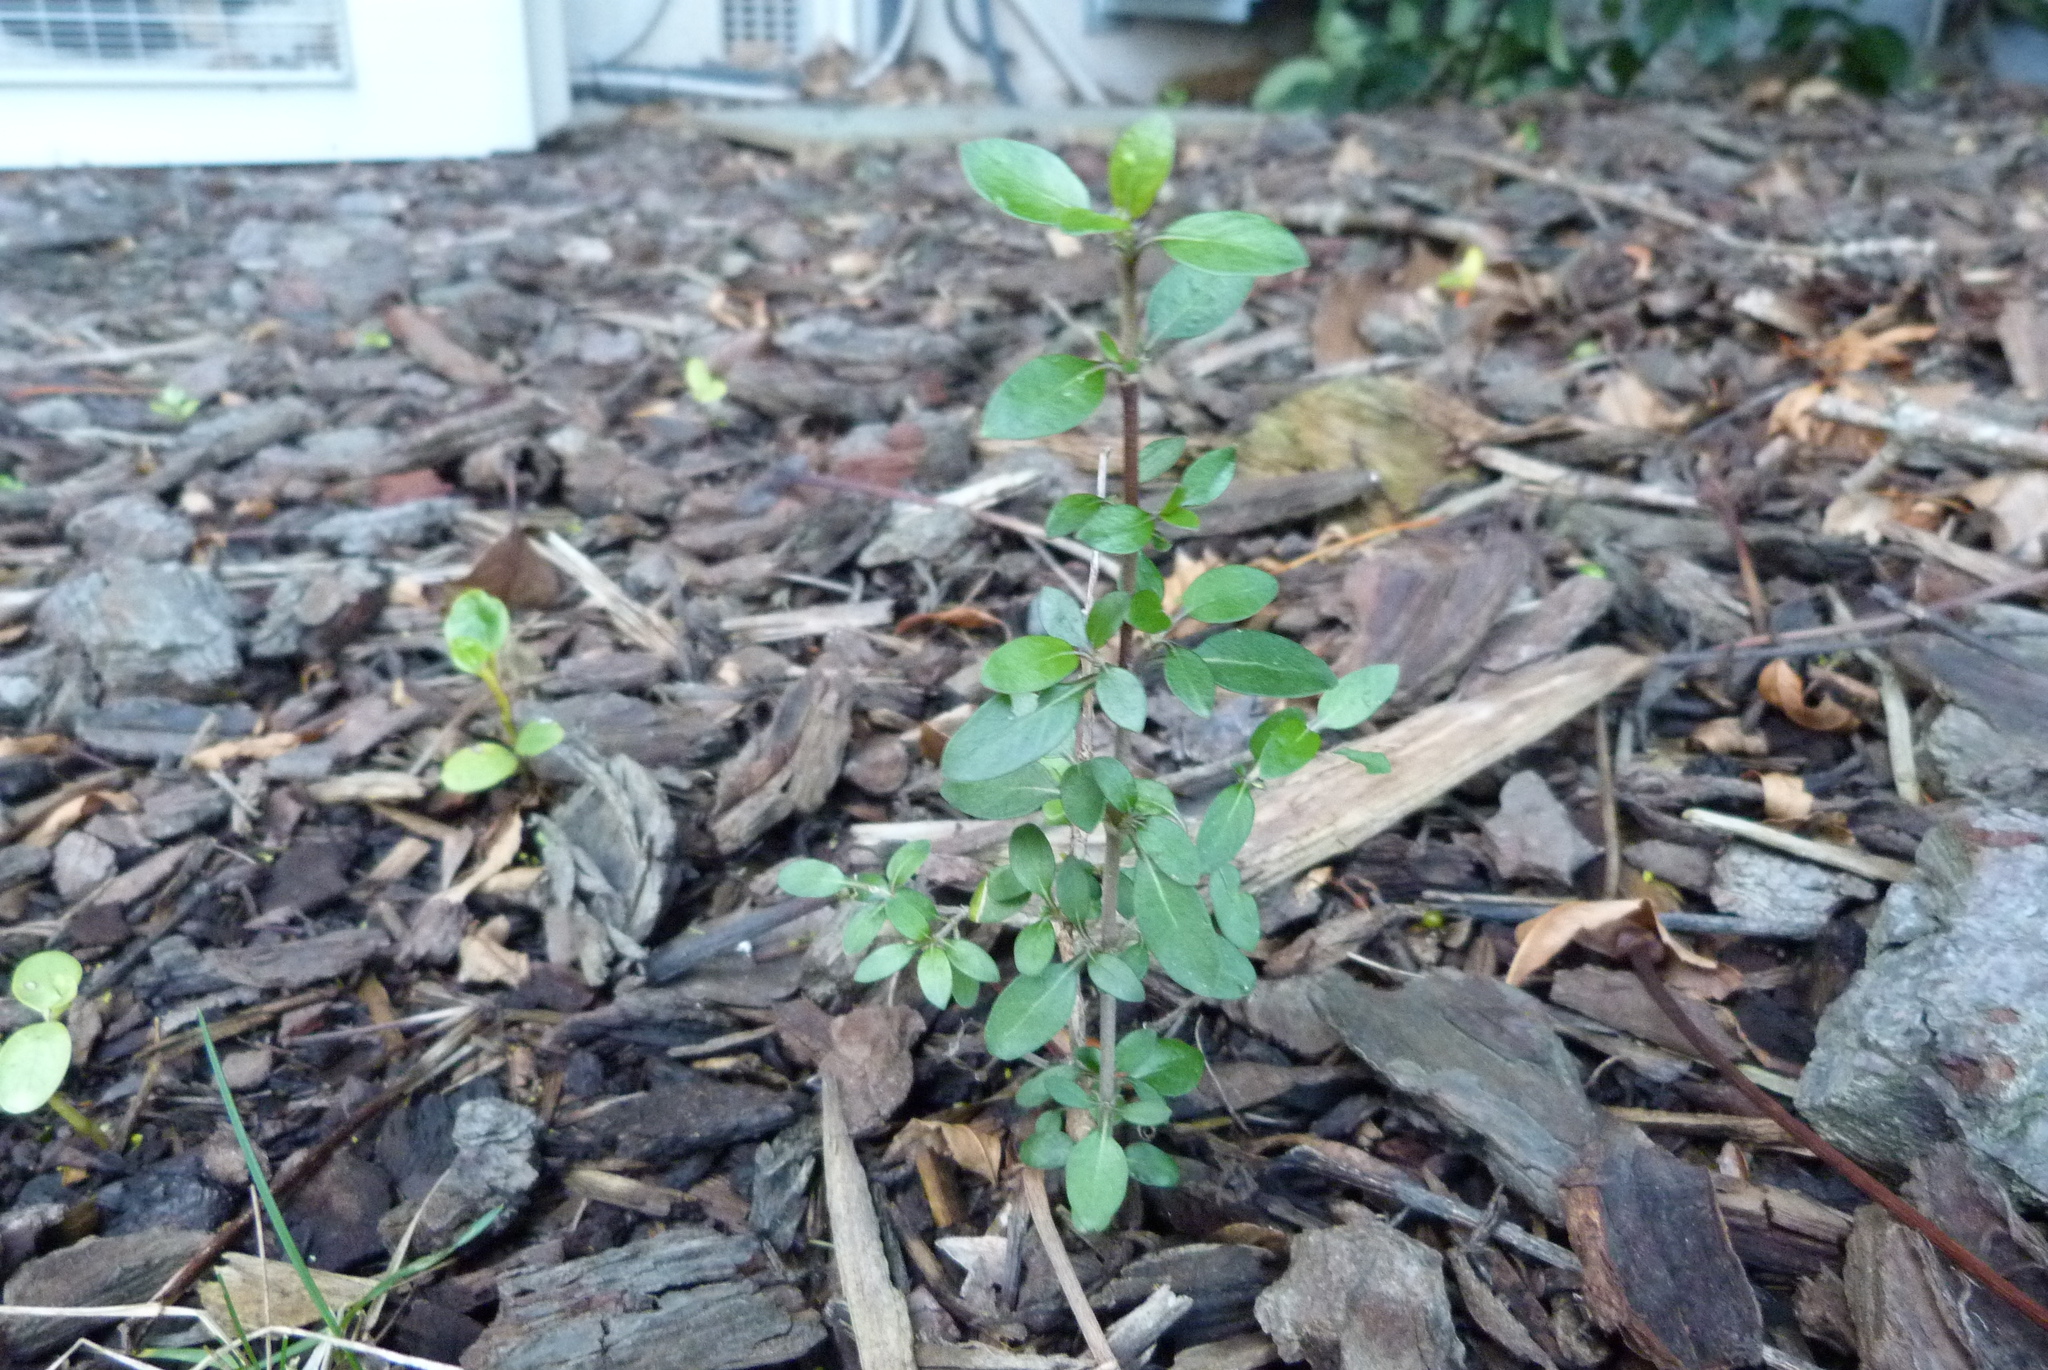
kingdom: Plantae
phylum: Tracheophyta
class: Magnoliopsida
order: Gentianales
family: Rubiaceae
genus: Coprosma
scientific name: Coprosma propinqua
